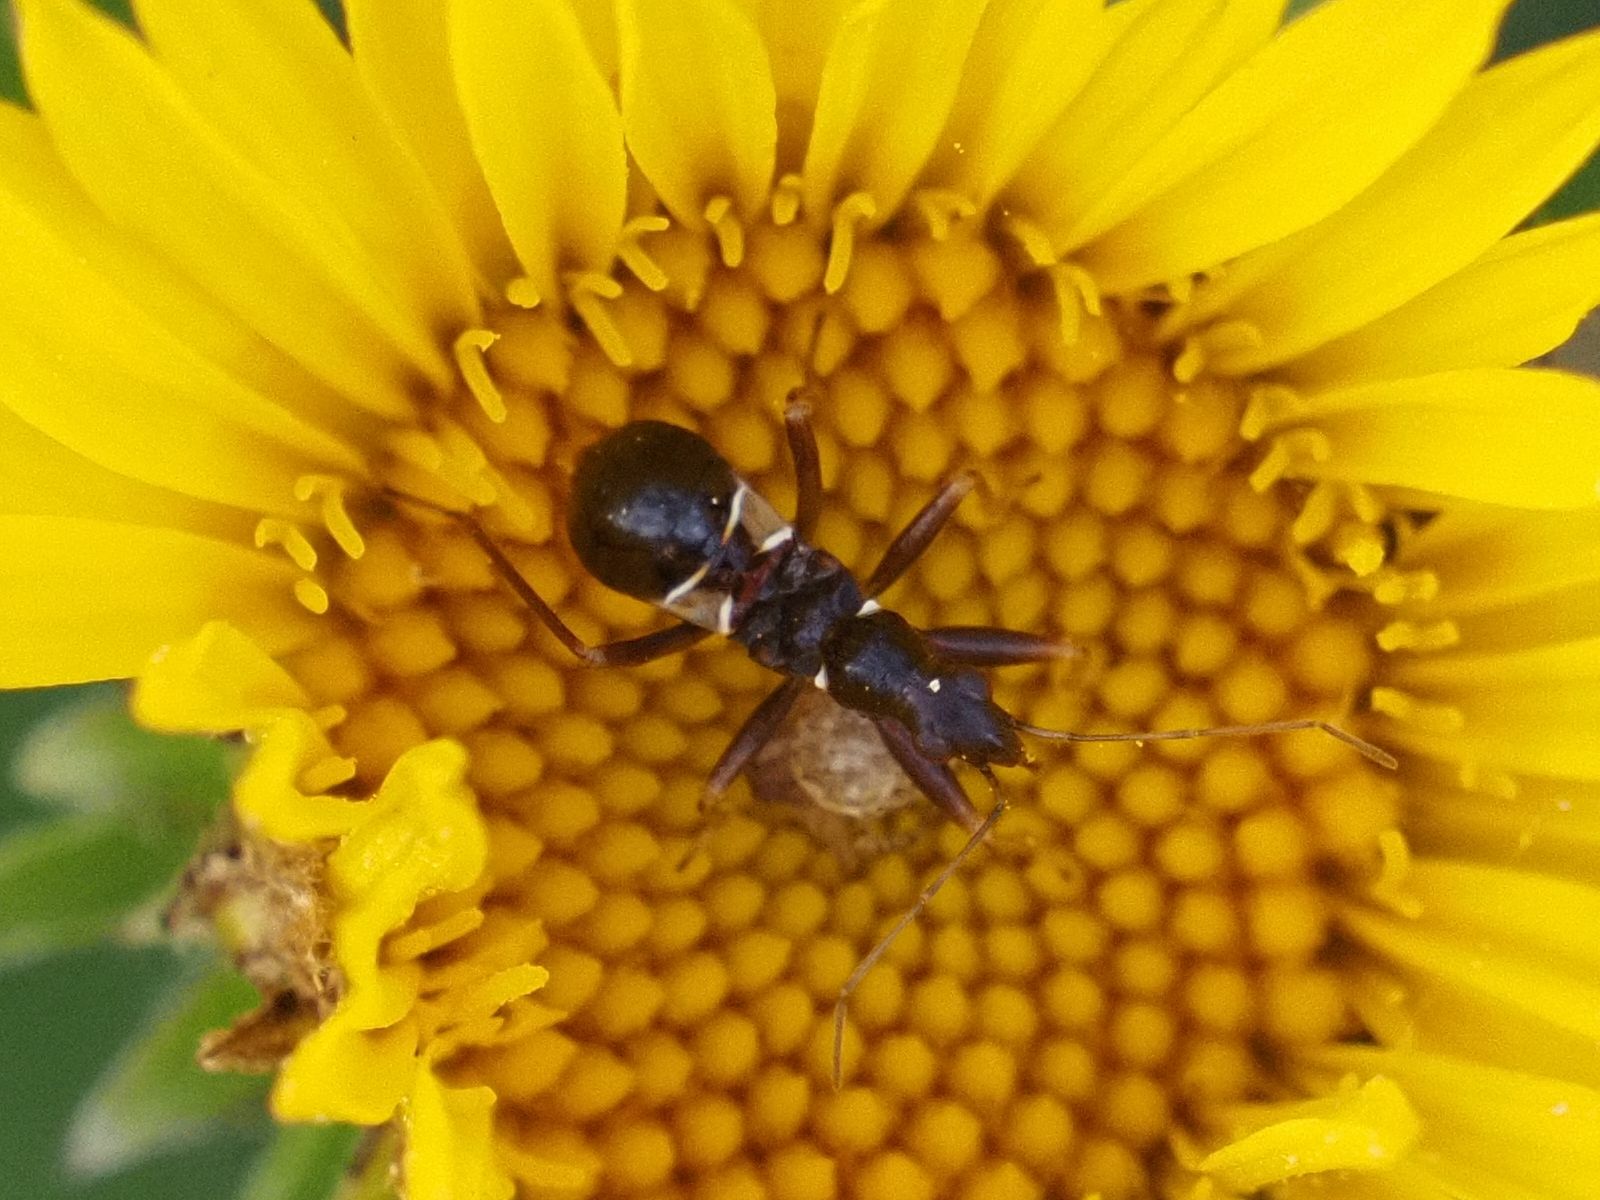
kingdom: Animalia
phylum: Arthropoda
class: Insecta
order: Hemiptera
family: Nabidae
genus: Himacerus
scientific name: Himacerus mirmicoides
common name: Ant damsel bug
